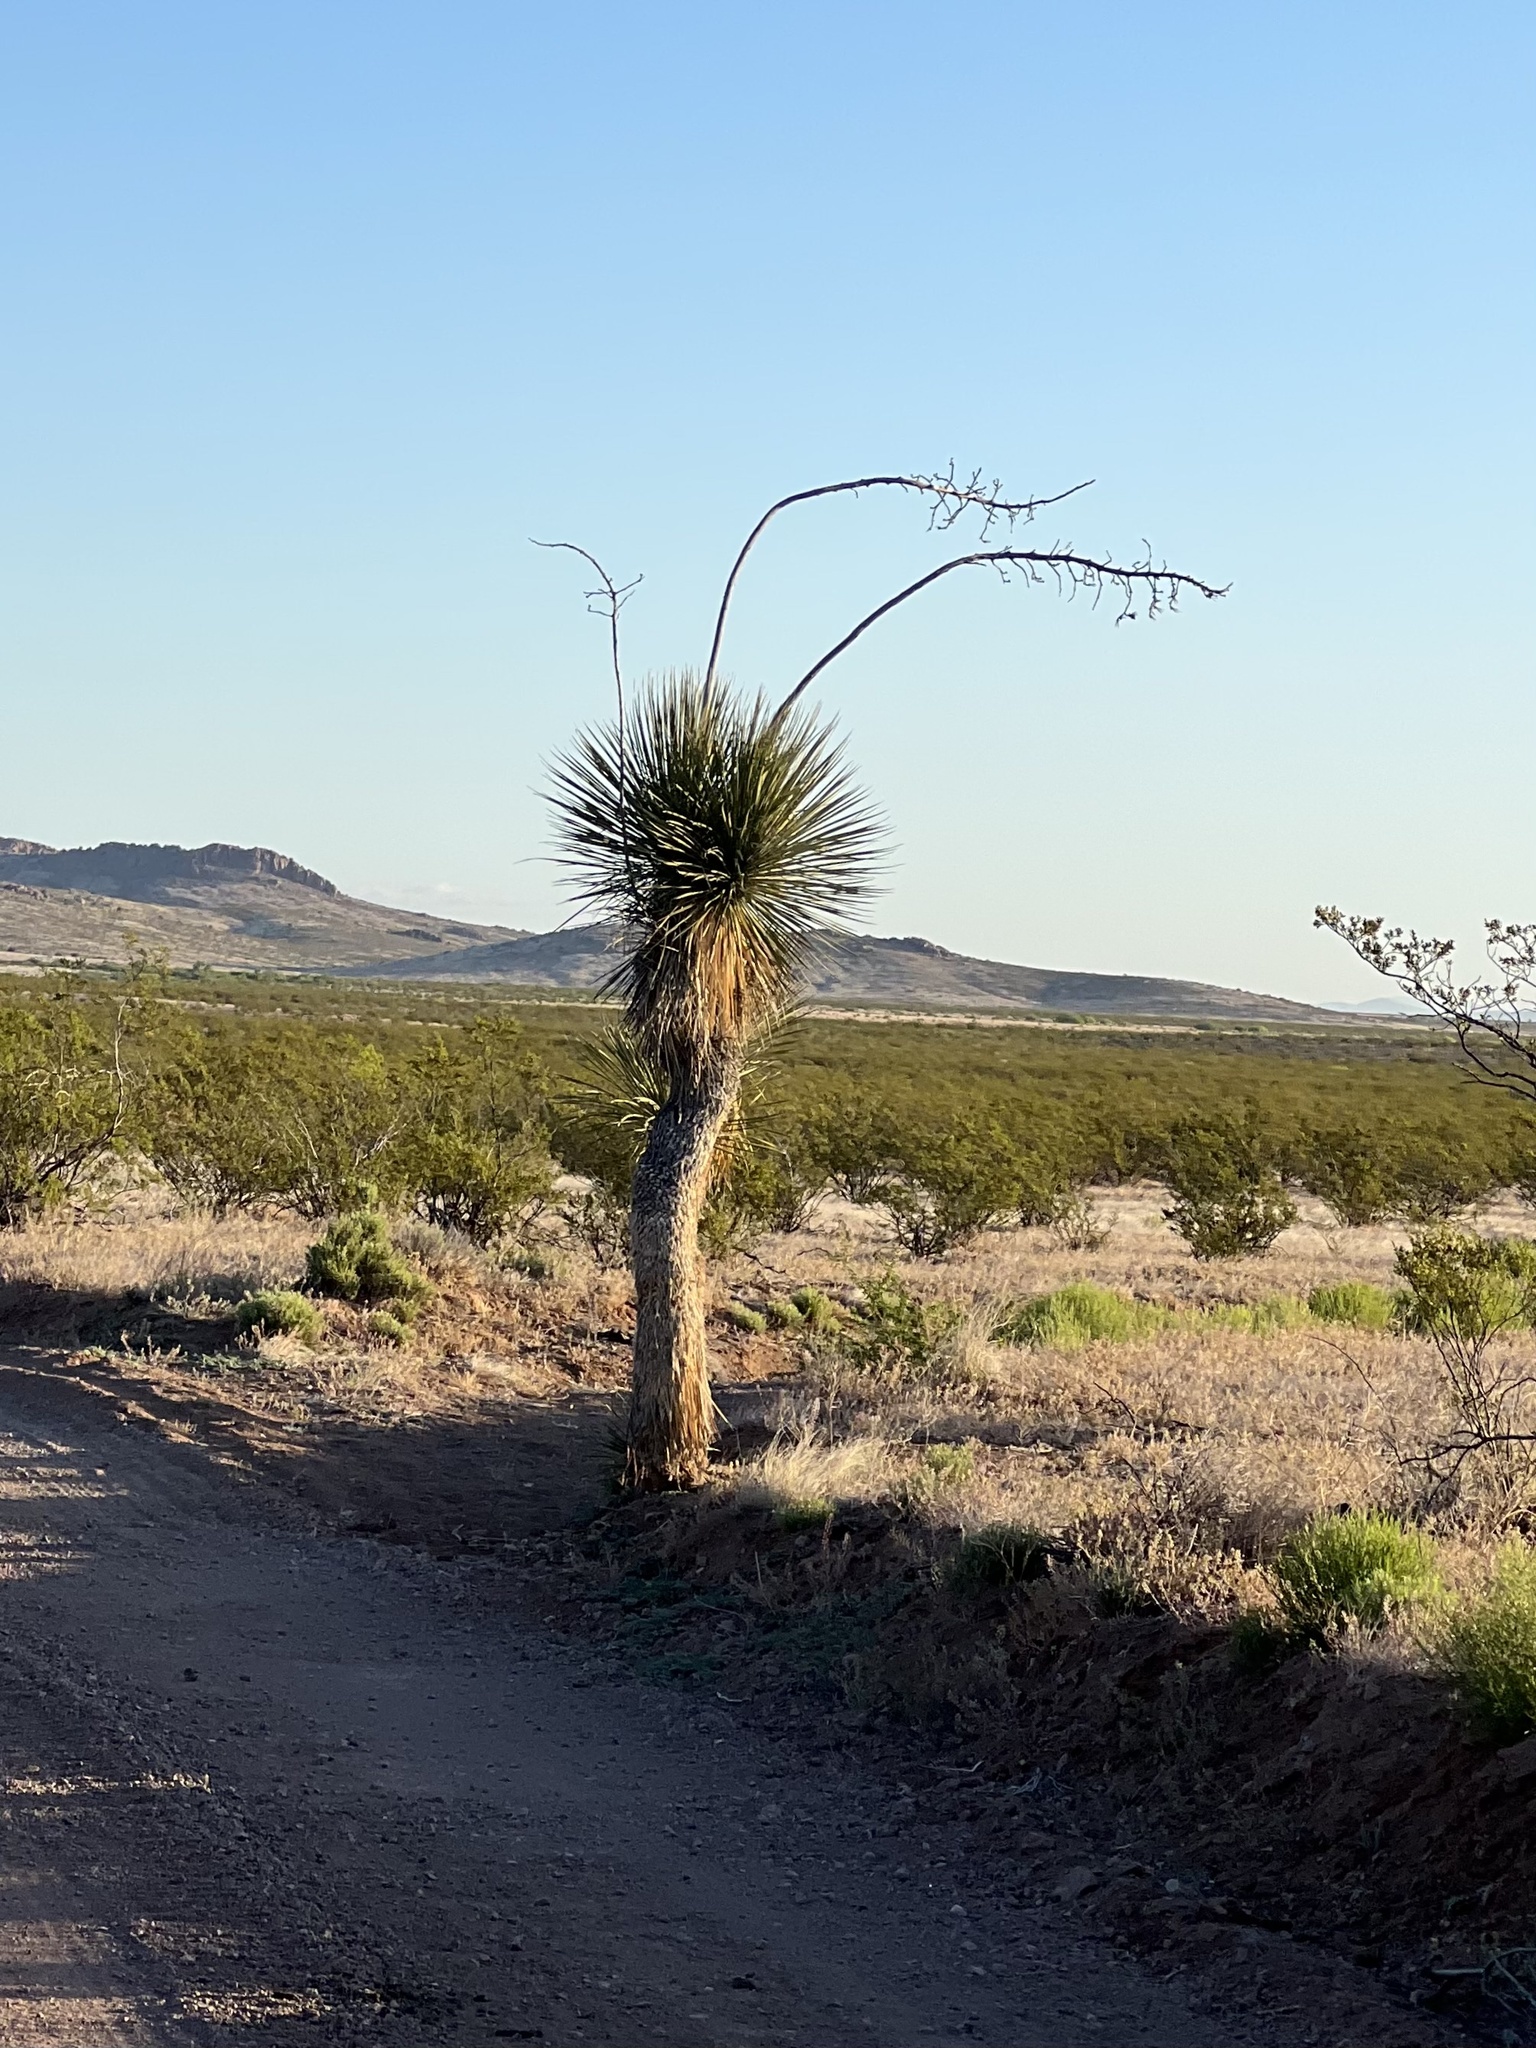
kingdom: Plantae
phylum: Tracheophyta
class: Liliopsida
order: Asparagales
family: Asparagaceae
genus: Yucca
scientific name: Yucca elata
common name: Palmella
